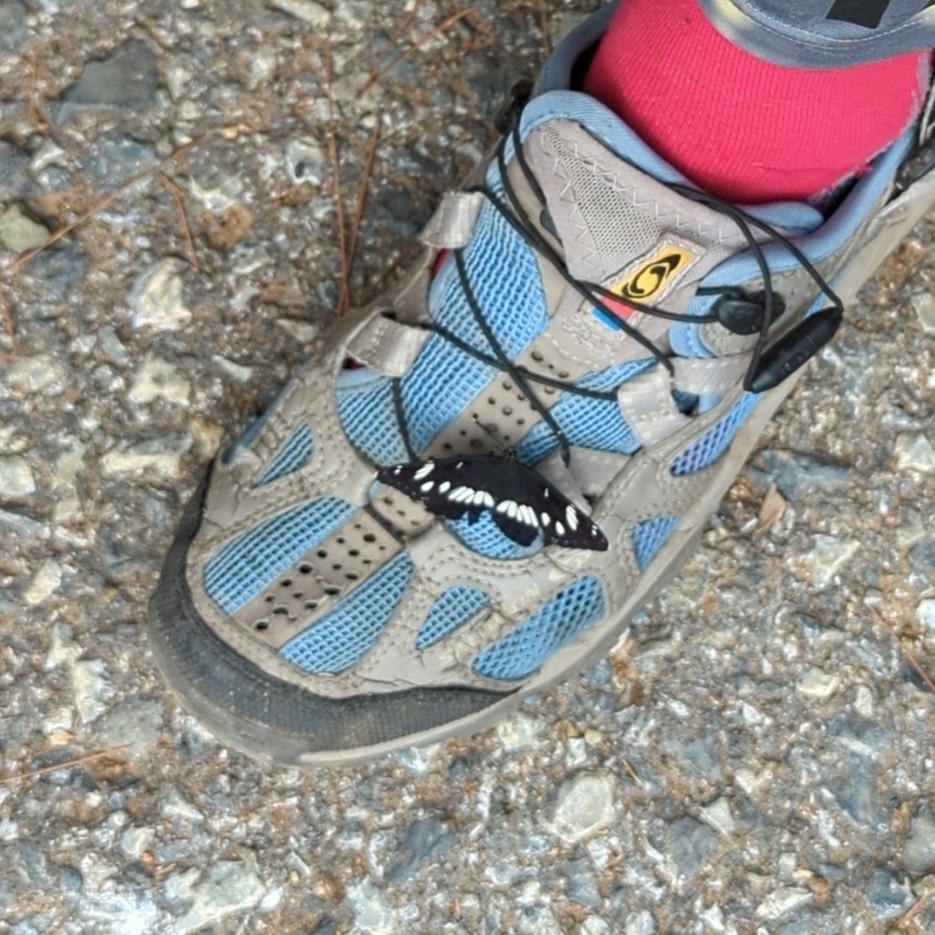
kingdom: Animalia
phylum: Arthropoda
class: Insecta
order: Lepidoptera
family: Nymphalidae
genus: Limenitis
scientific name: Limenitis reducta
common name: Southern white admiral
